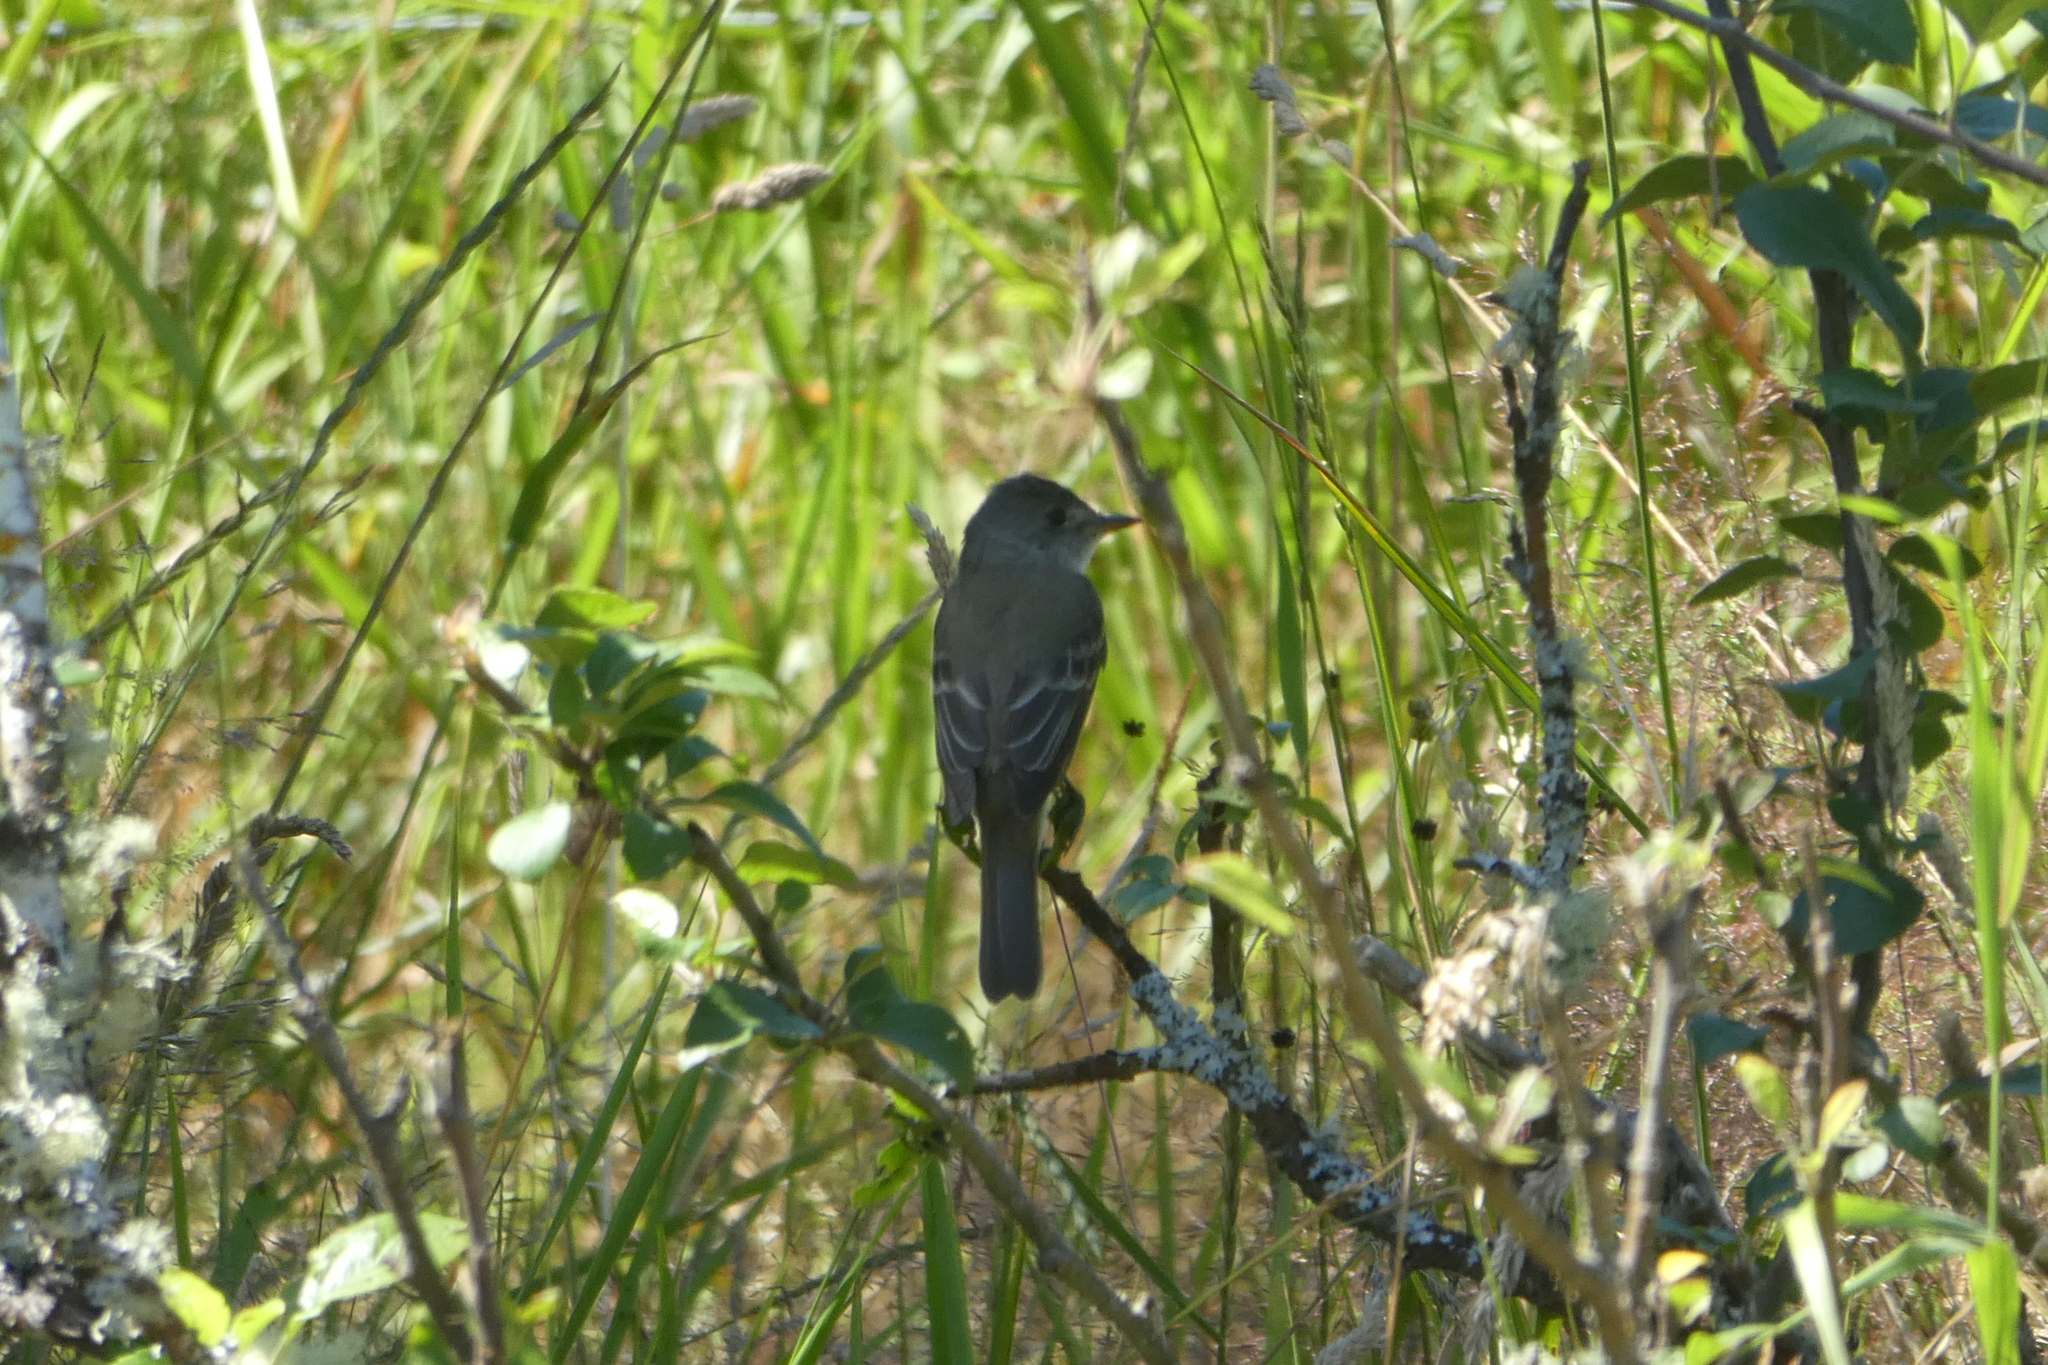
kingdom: Animalia
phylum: Chordata
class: Aves
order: Passeriformes
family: Tyrannidae
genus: Empidonax
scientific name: Empidonax
